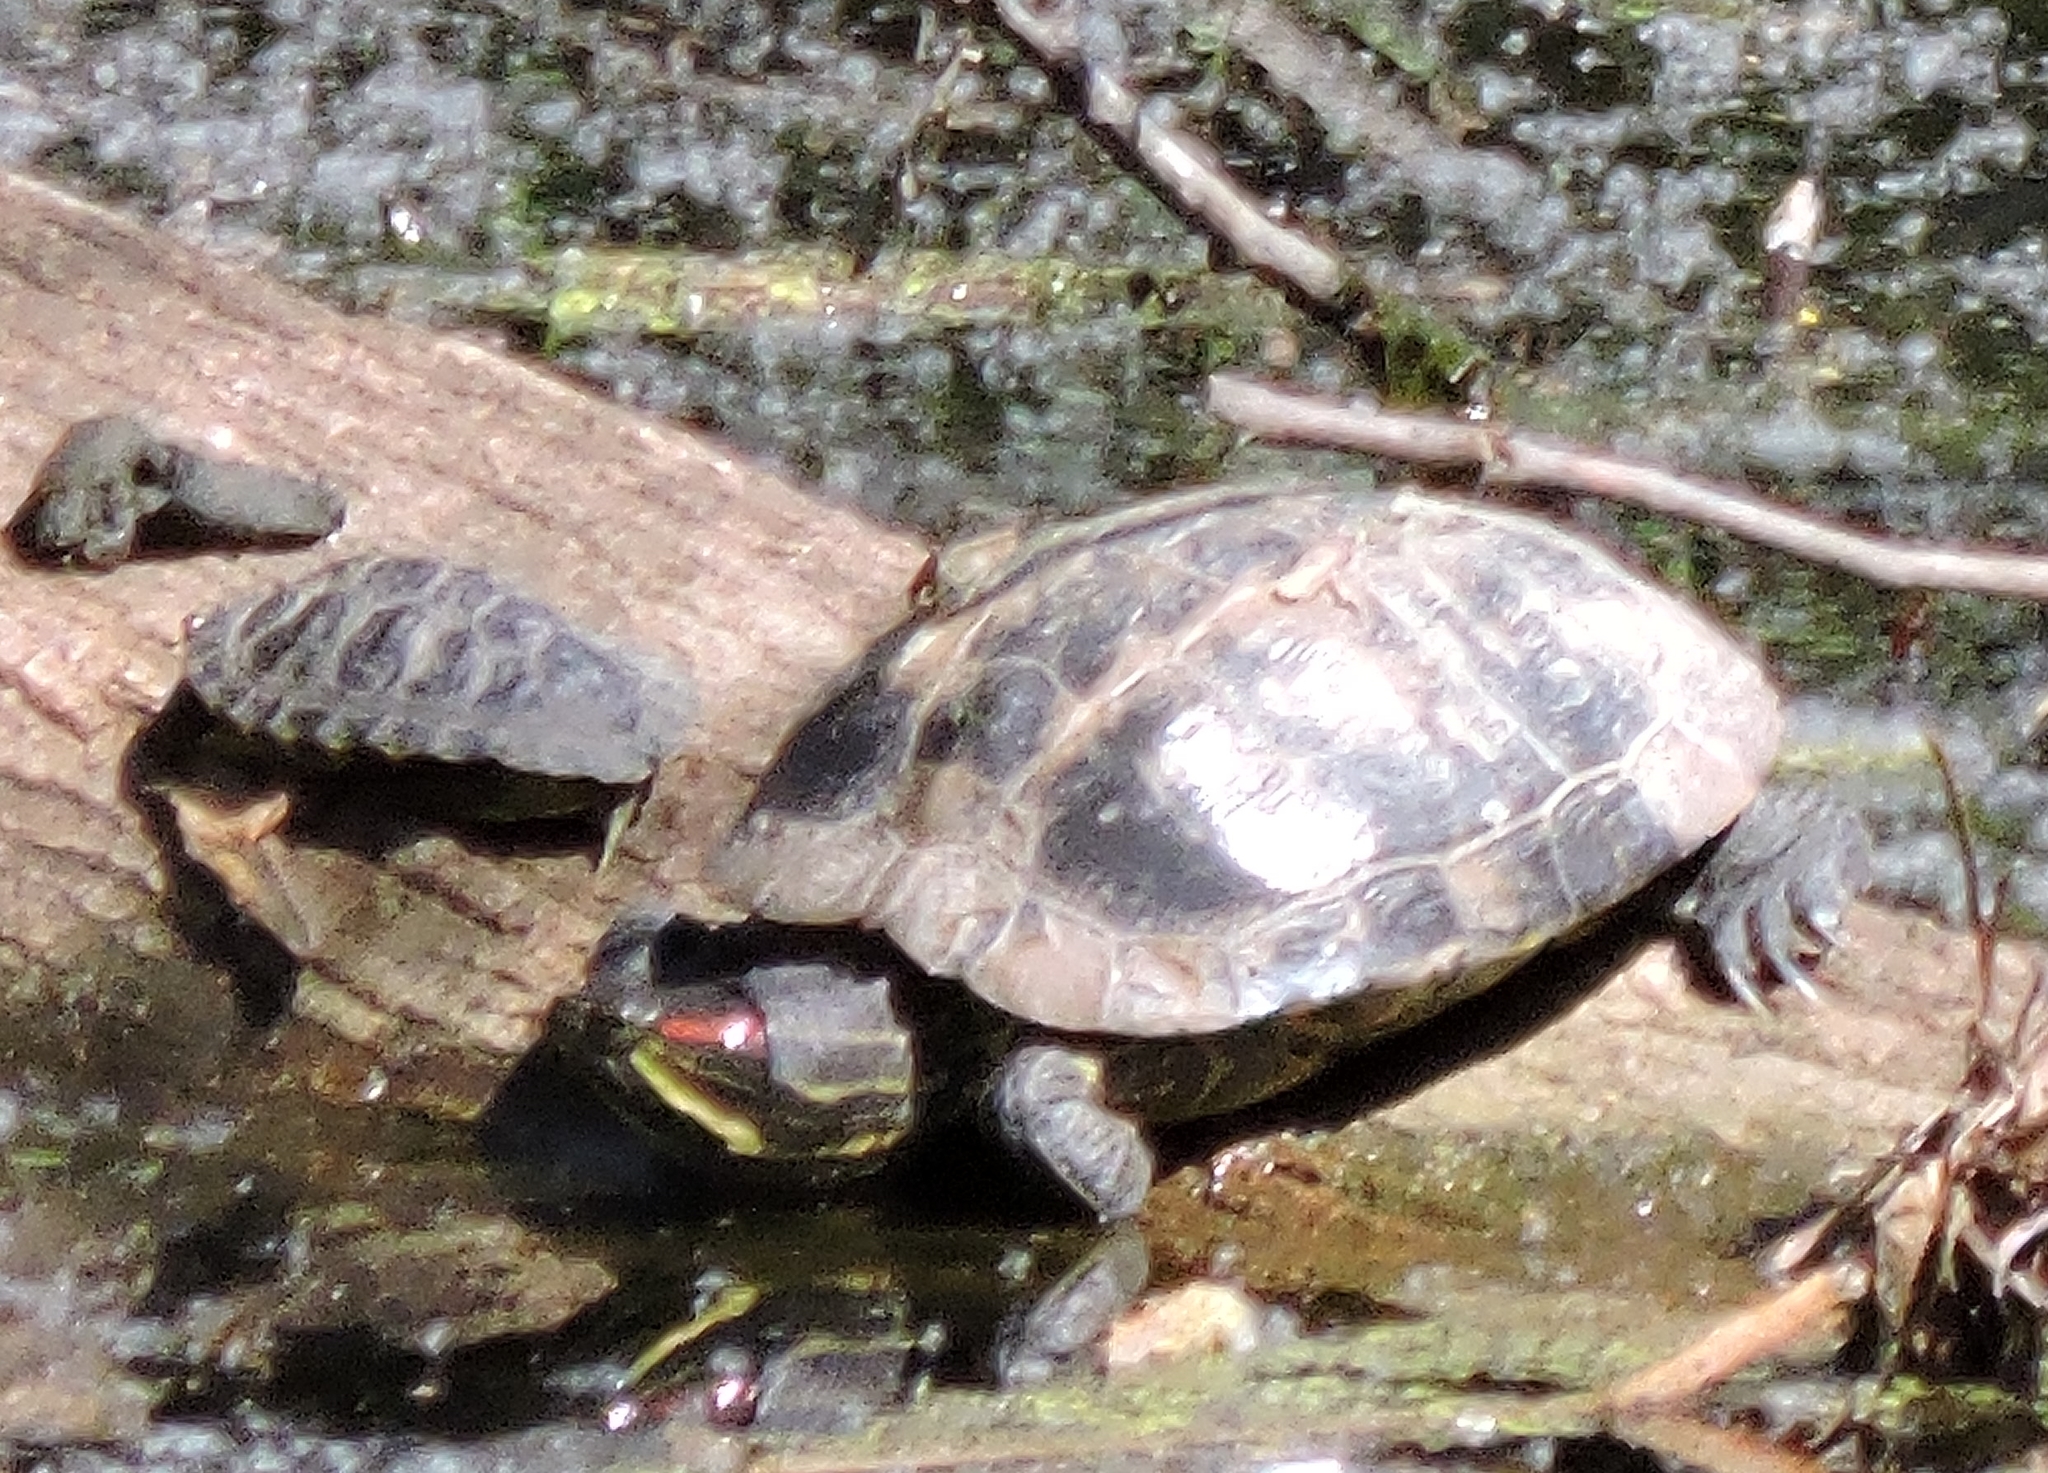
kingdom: Animalia
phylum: Chordata
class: Testudines
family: Emydidae
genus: Trachemys
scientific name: Trachemys scripta
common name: Slider
